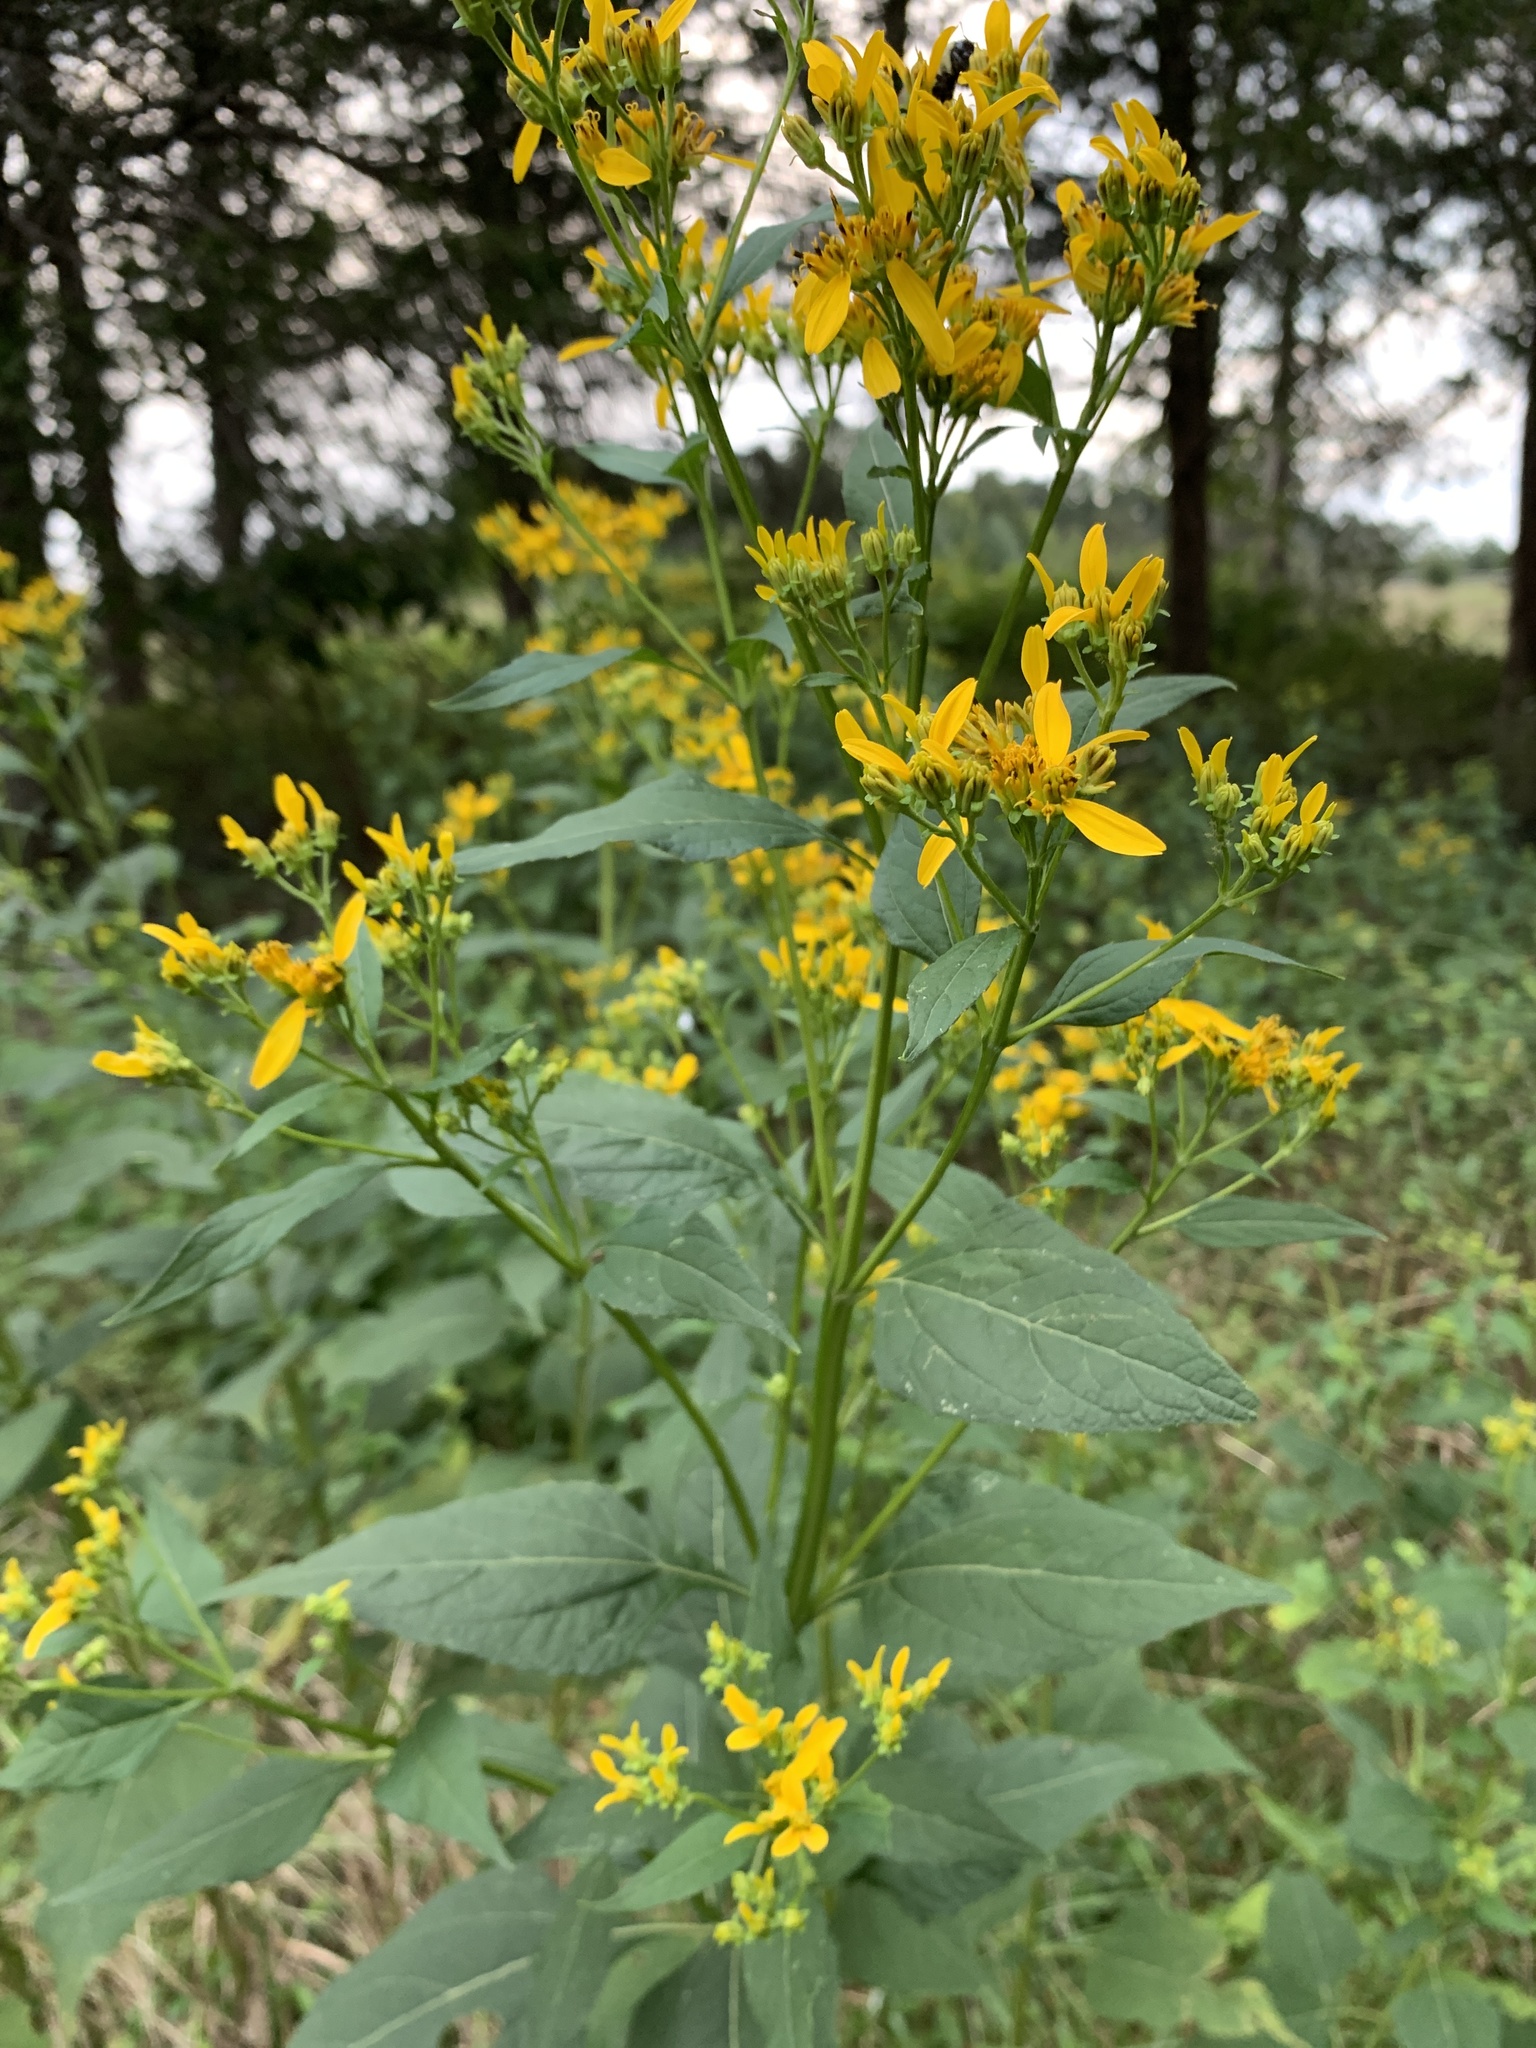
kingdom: Plantae
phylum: Tracheophyta
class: Magnoliopsida
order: Asterales
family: Asteraceae
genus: Verbesina
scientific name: Verbesina occidentalis
